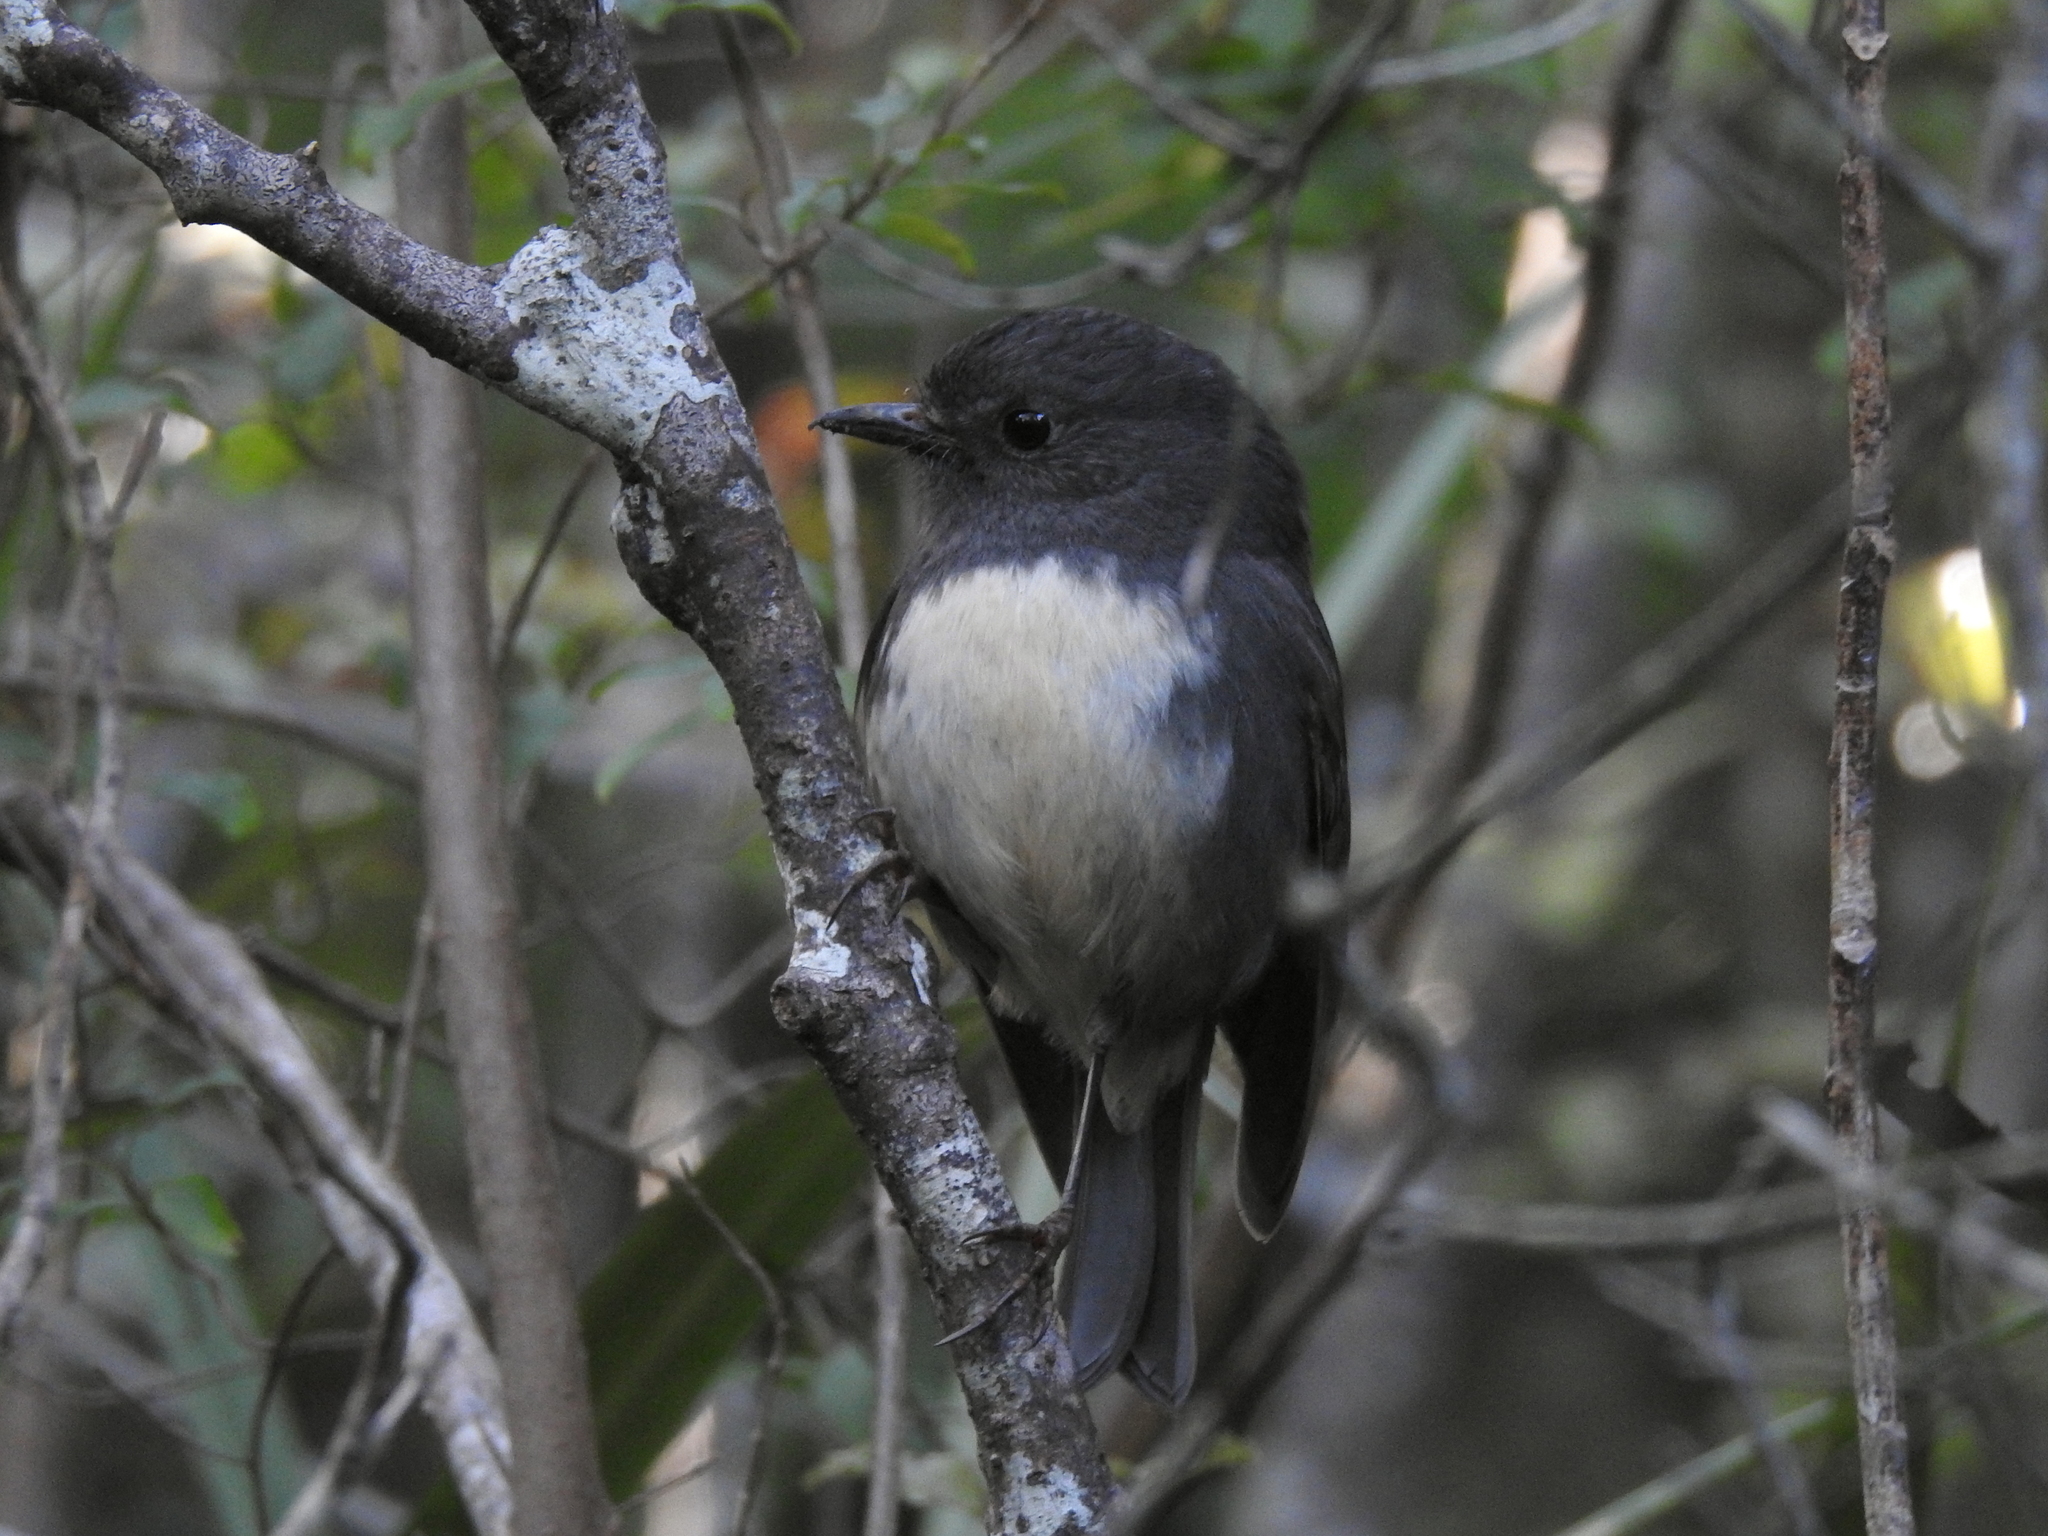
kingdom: Animalia
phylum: Chordata
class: Aves
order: Passeriformes
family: Petroicidae
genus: Petroica
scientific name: Petroica australis
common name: New zealand robin
